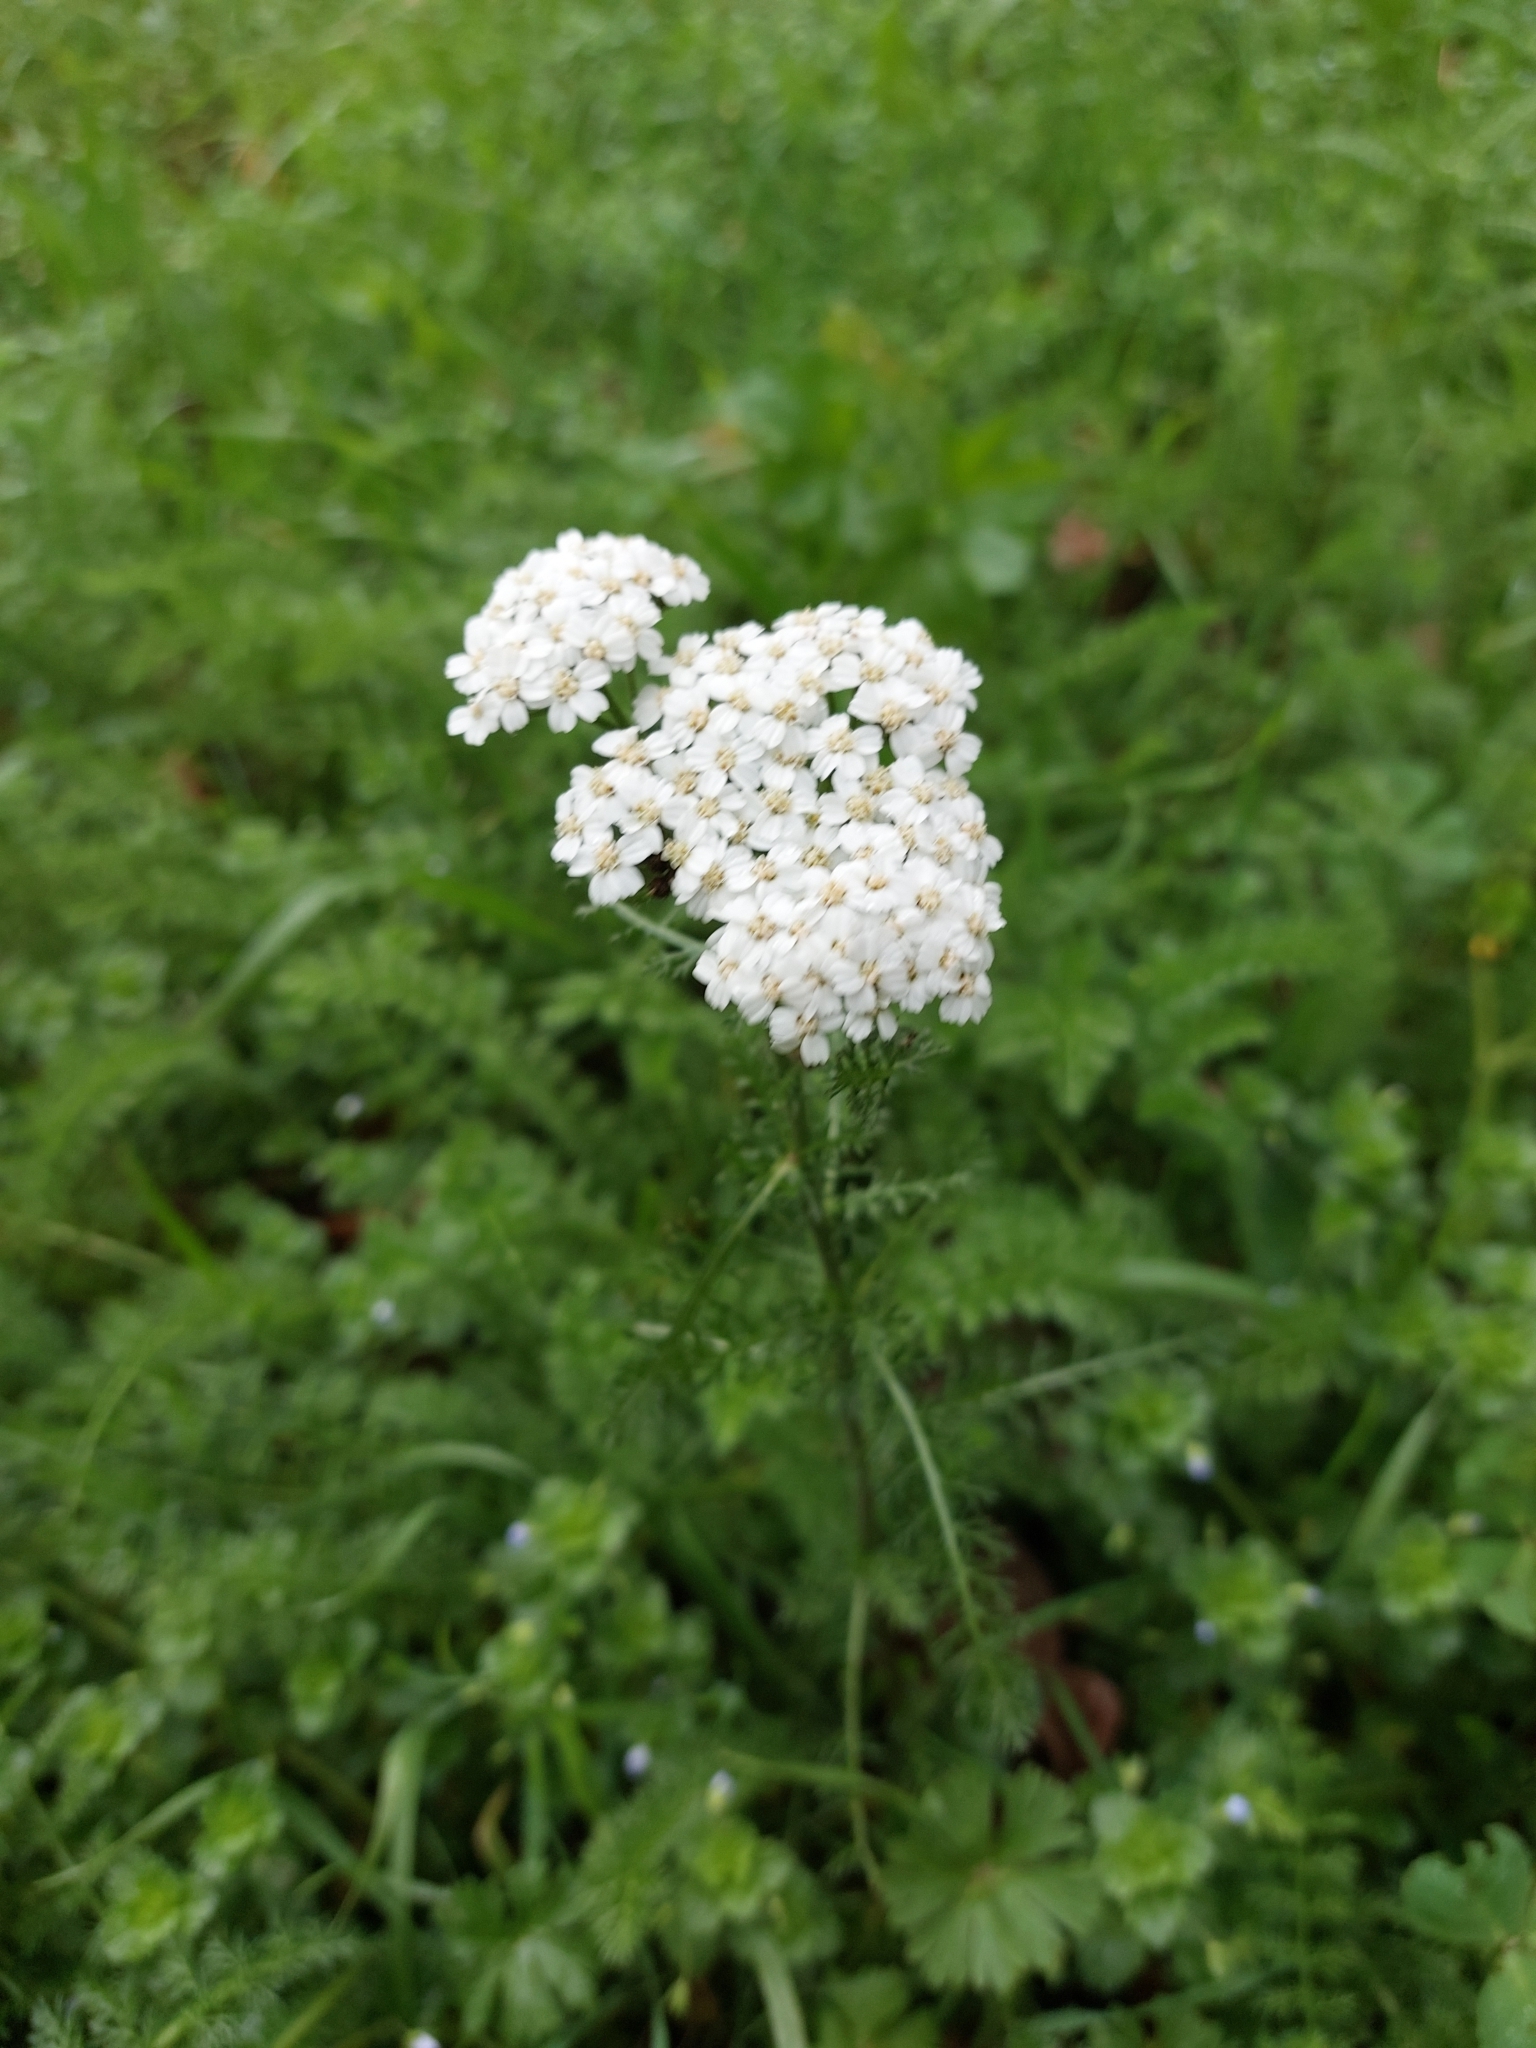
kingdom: Plantae
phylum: Tracheophyta
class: Magnoliopsida
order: Asterales
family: Asteraceae
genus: Achillea
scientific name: Achillea millefolium
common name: Yarrow
